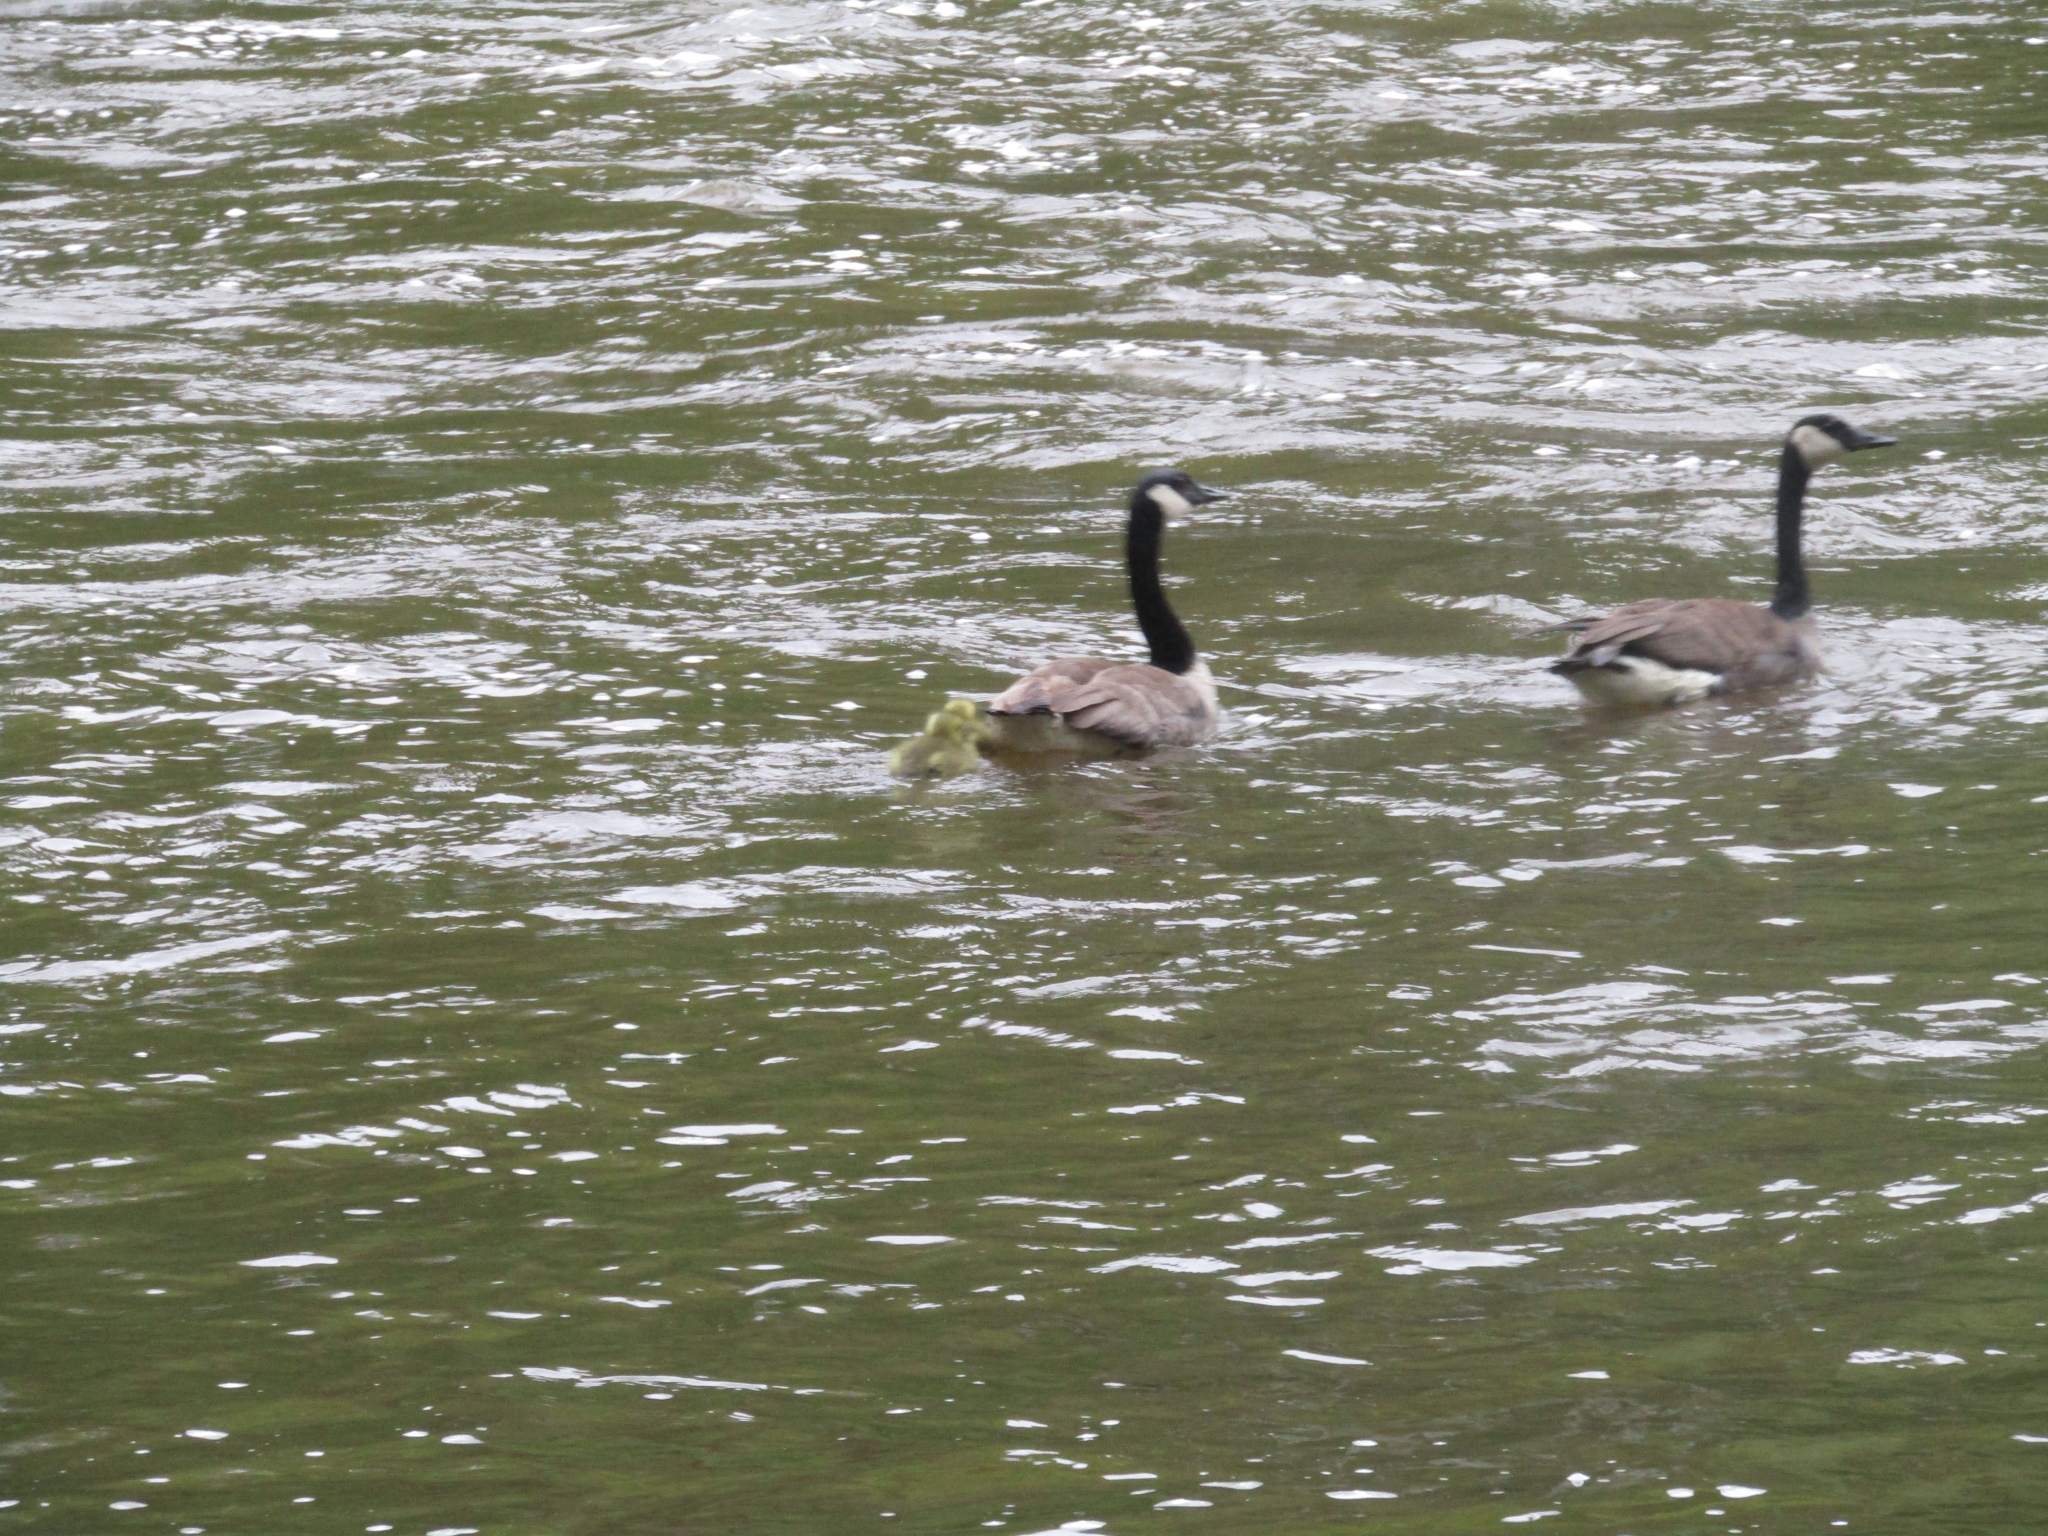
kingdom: Animalia
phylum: Chordata
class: Aves
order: Anseriformes
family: Anatidae
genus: Branta
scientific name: Branta canadensis
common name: Canada goose
